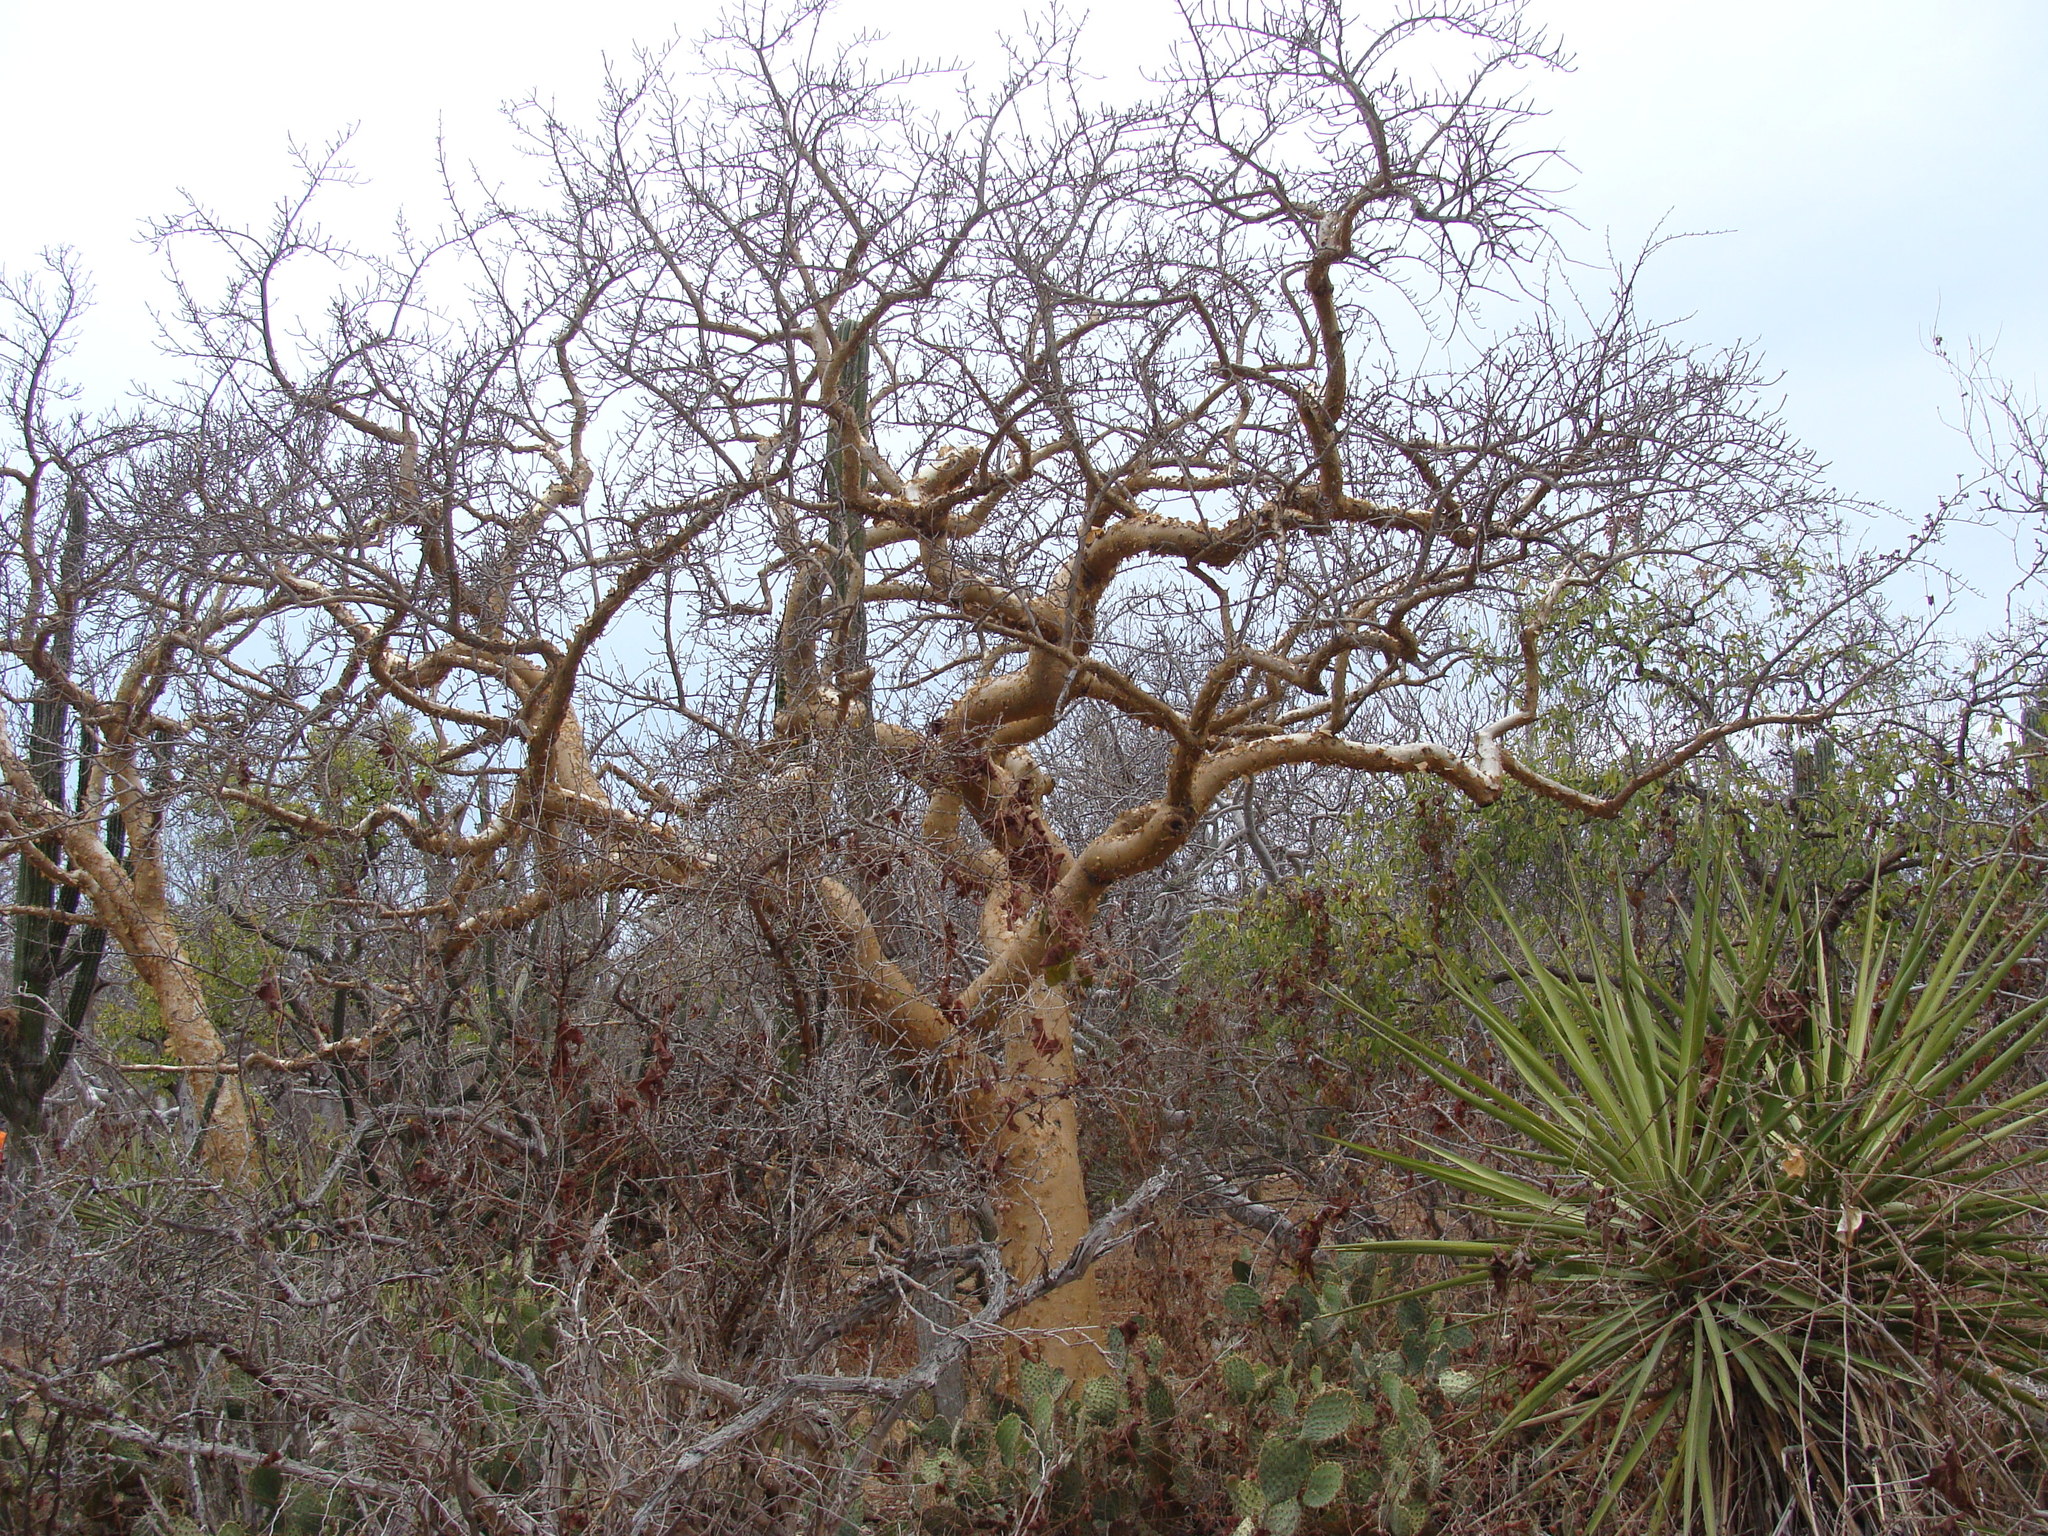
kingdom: Plantae
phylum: Tracheophyta
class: Magnoliopsida
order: Sapindales
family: Burseraceae
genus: Bursera
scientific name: Bursera microphylla
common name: Elephant tree
